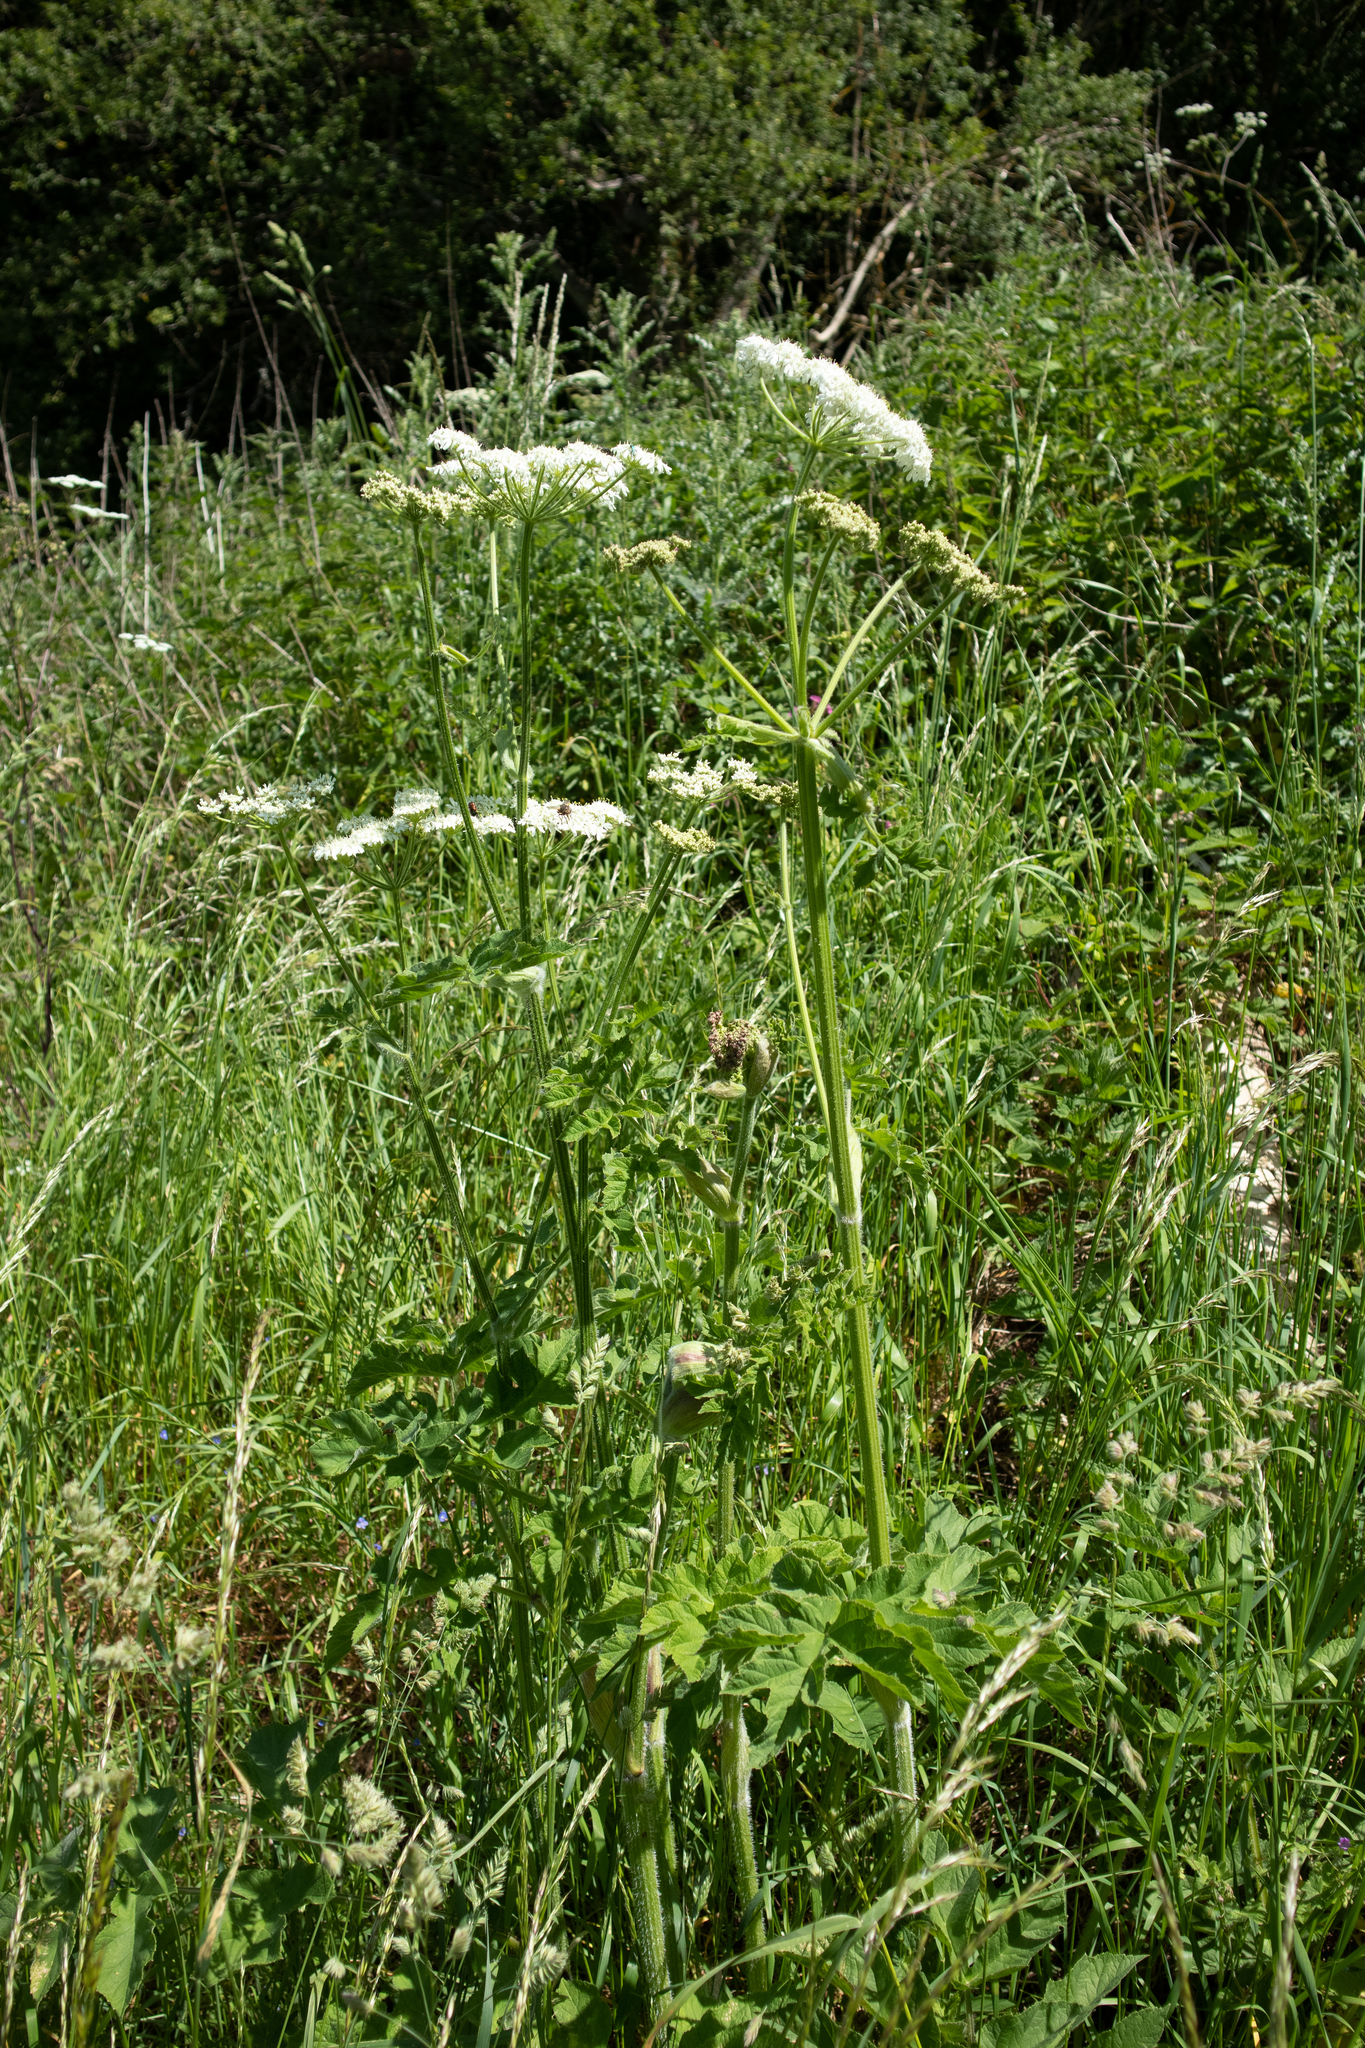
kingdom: Plantae
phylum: Tracheophyta
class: Magnoliopsida
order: Apiales
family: Apiaceae
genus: Heracleum
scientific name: Heracleum sphondylium
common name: Hogweed
